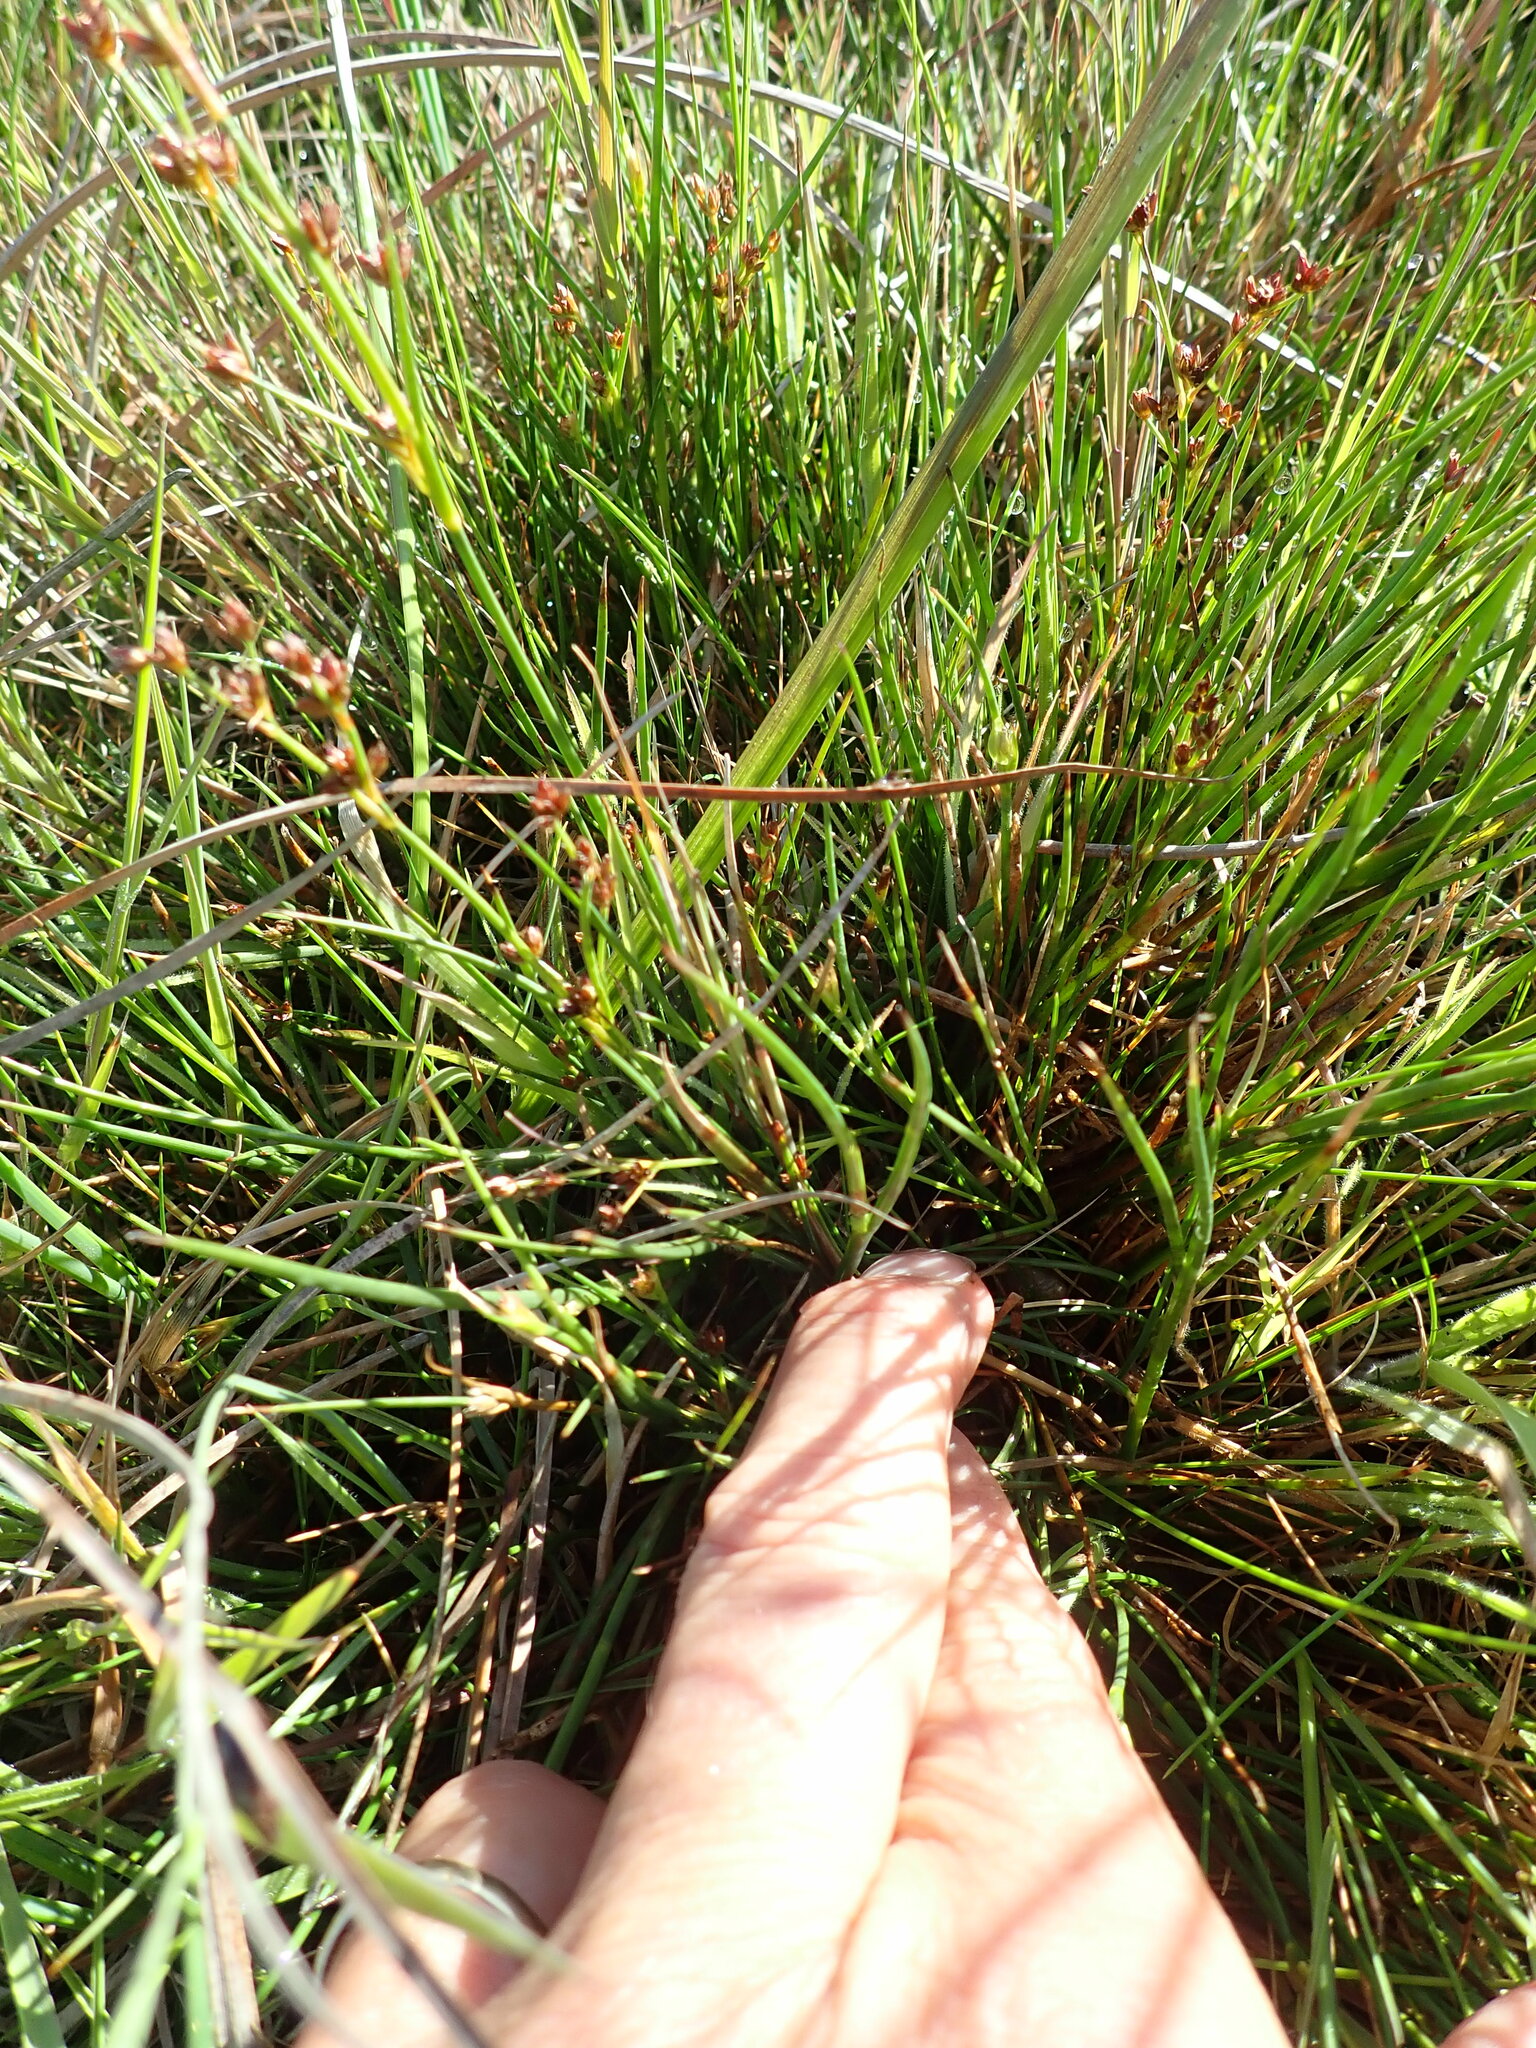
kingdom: Plantae
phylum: Tracheophyta
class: Liliopsida
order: Poales
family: Juncaceae
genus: Juncus
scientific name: Juncus articulatus
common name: Jointed rush
